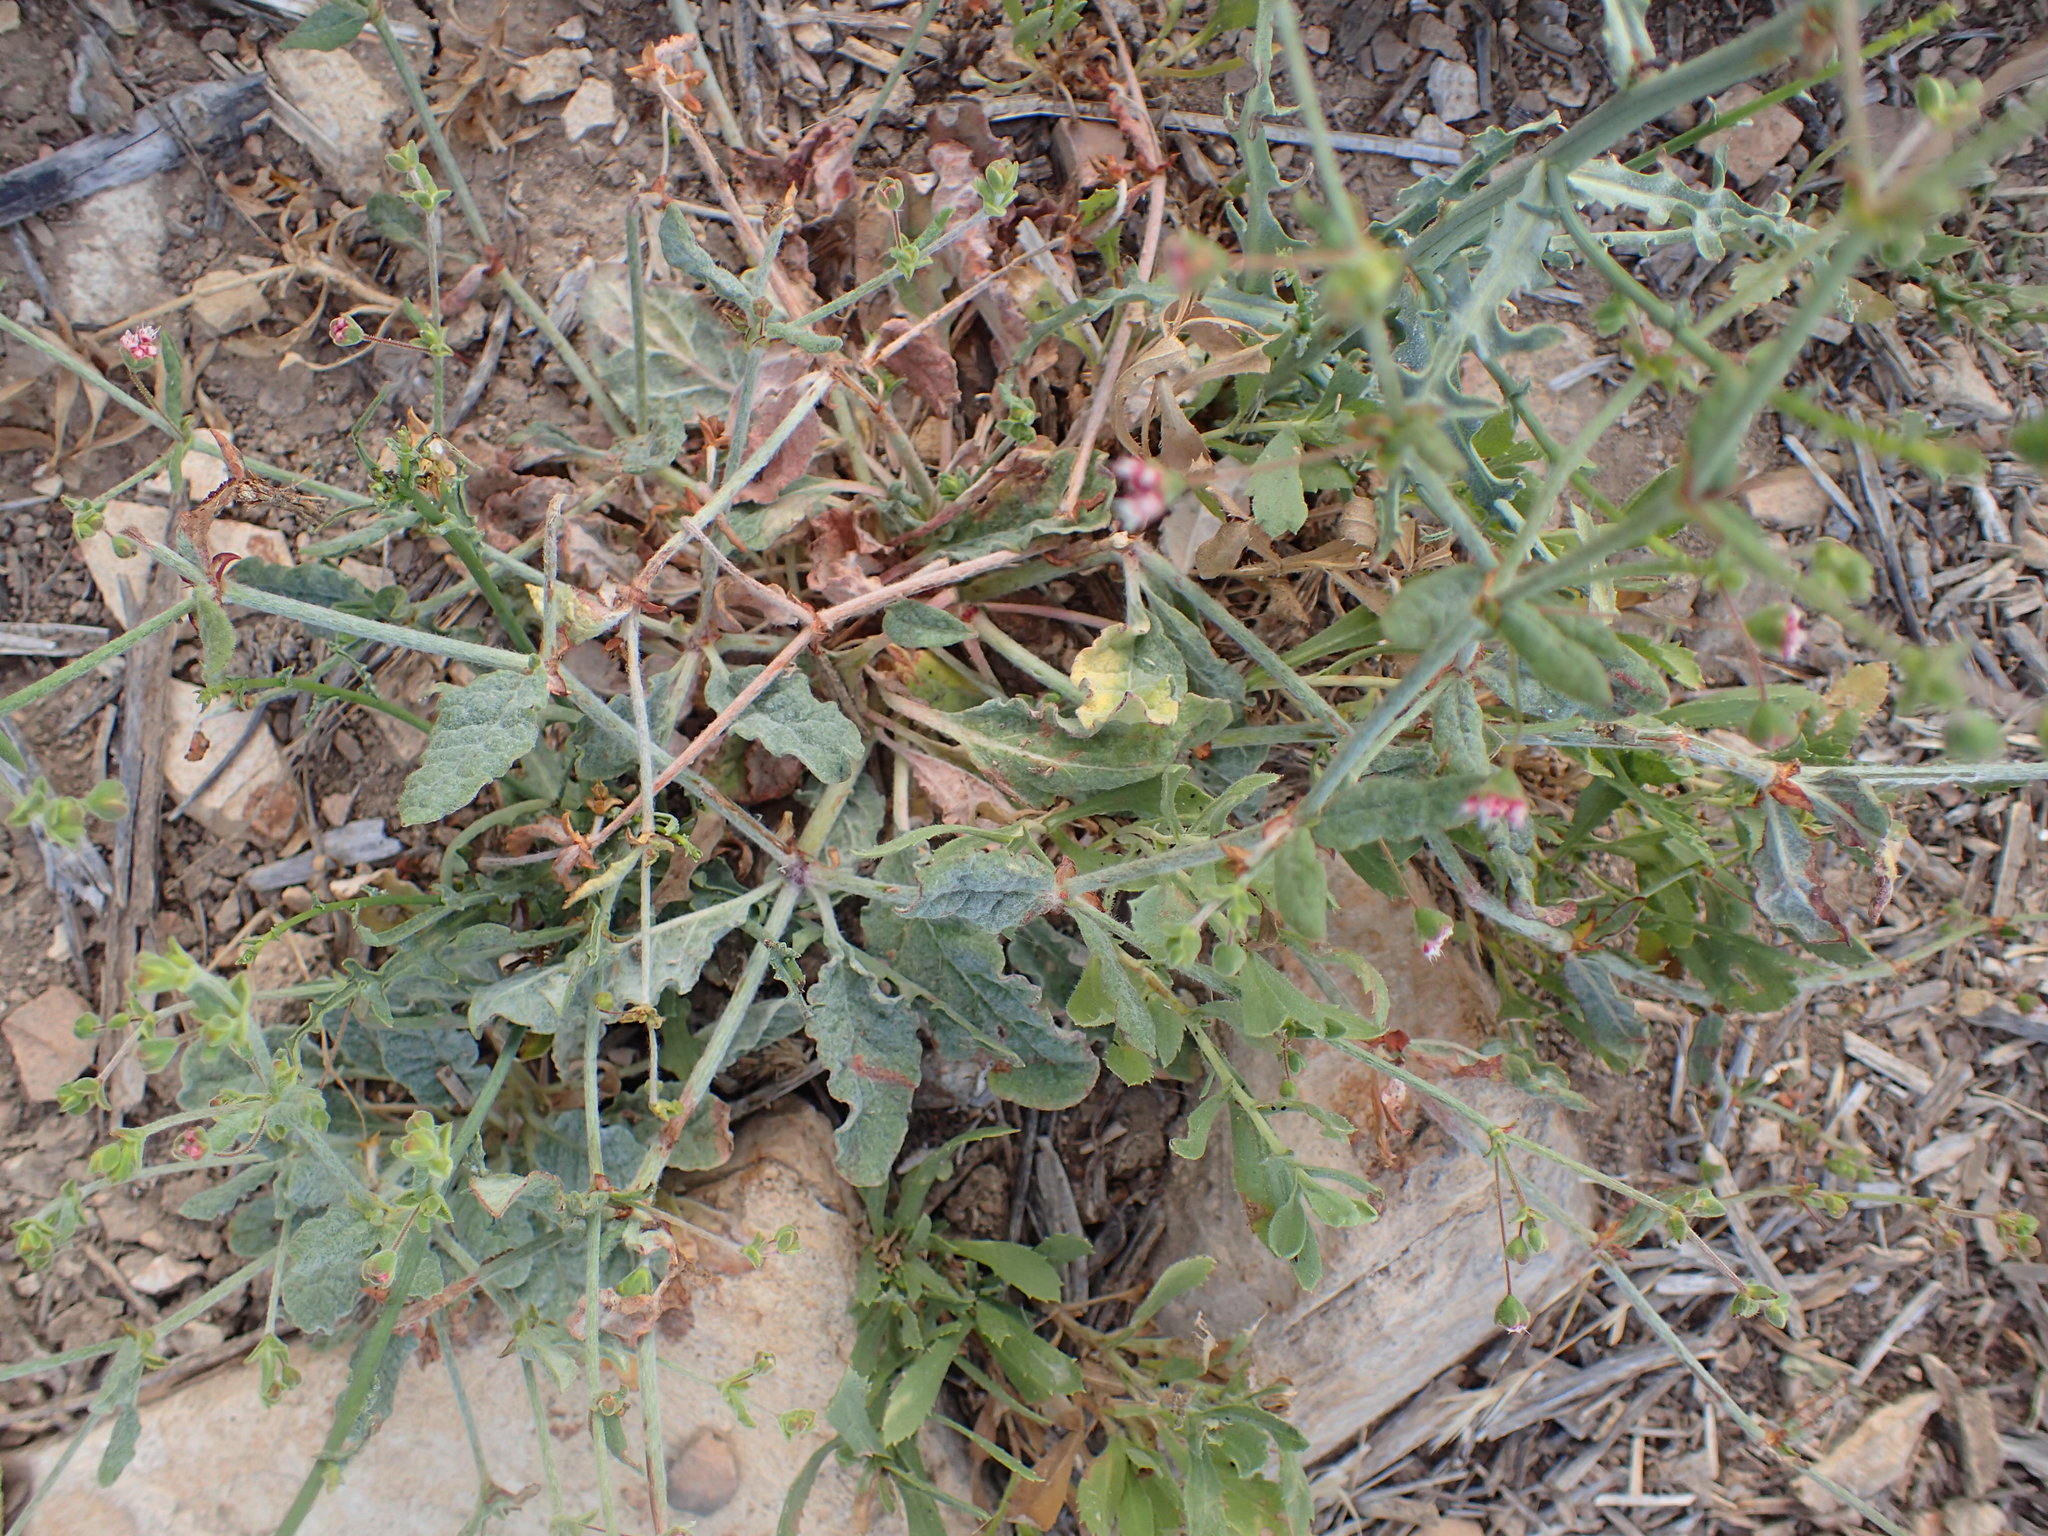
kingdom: Plantae
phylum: Tracheophyta
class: Magnoliopsida
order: Caryophyllales
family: Polygonaceae
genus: Eriogonum
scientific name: Eriogonum maculatum
